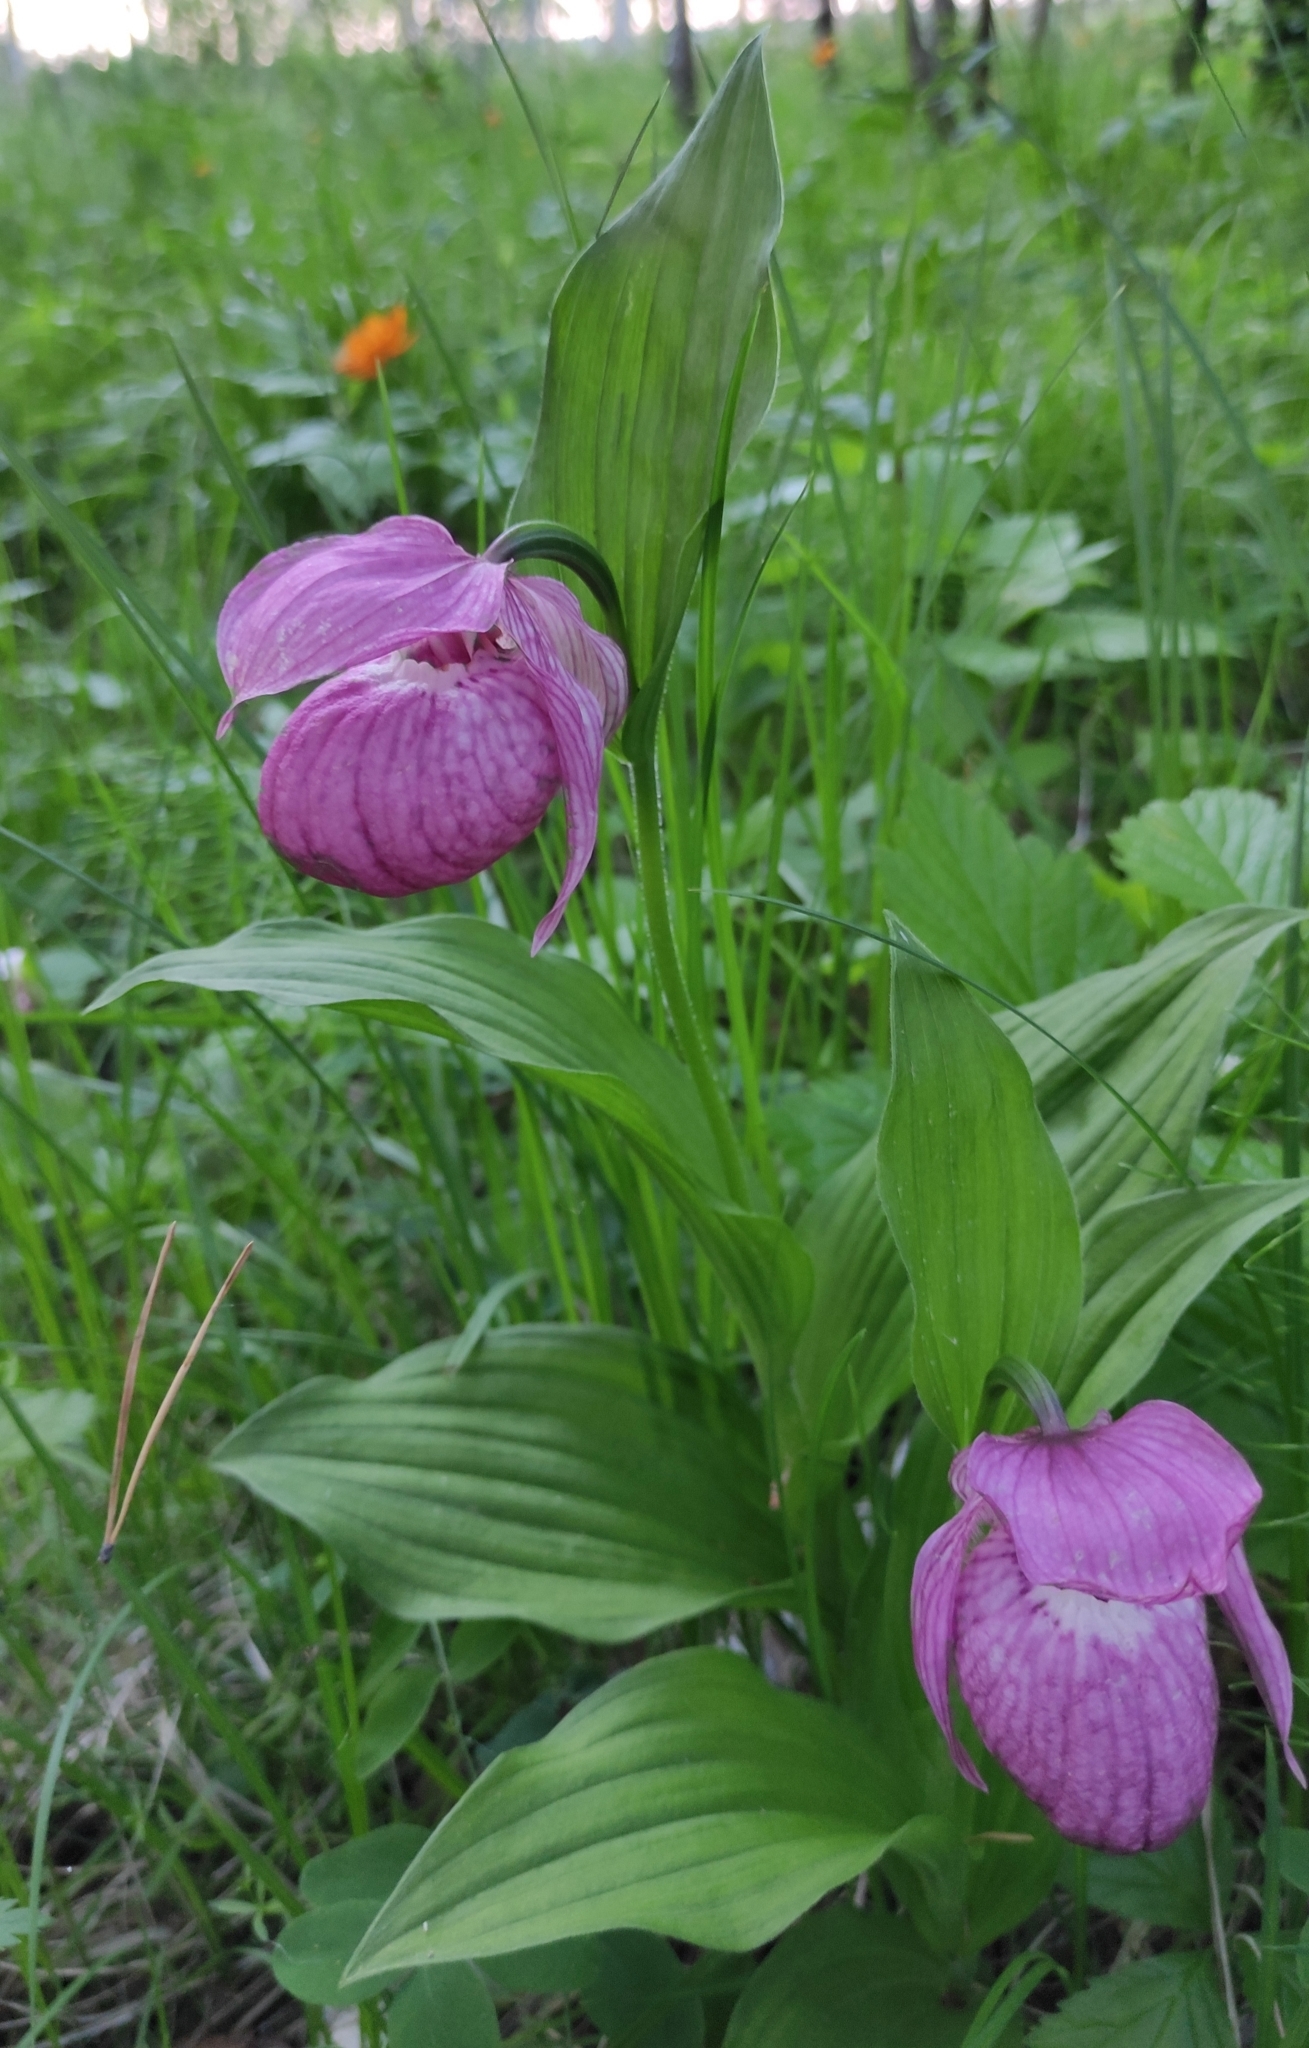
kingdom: Plantae
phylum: Tracheophyta
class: Liliopsida
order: Asparagales
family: Orchidaceae
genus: Cypripedium
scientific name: Cypripedium macranthos
